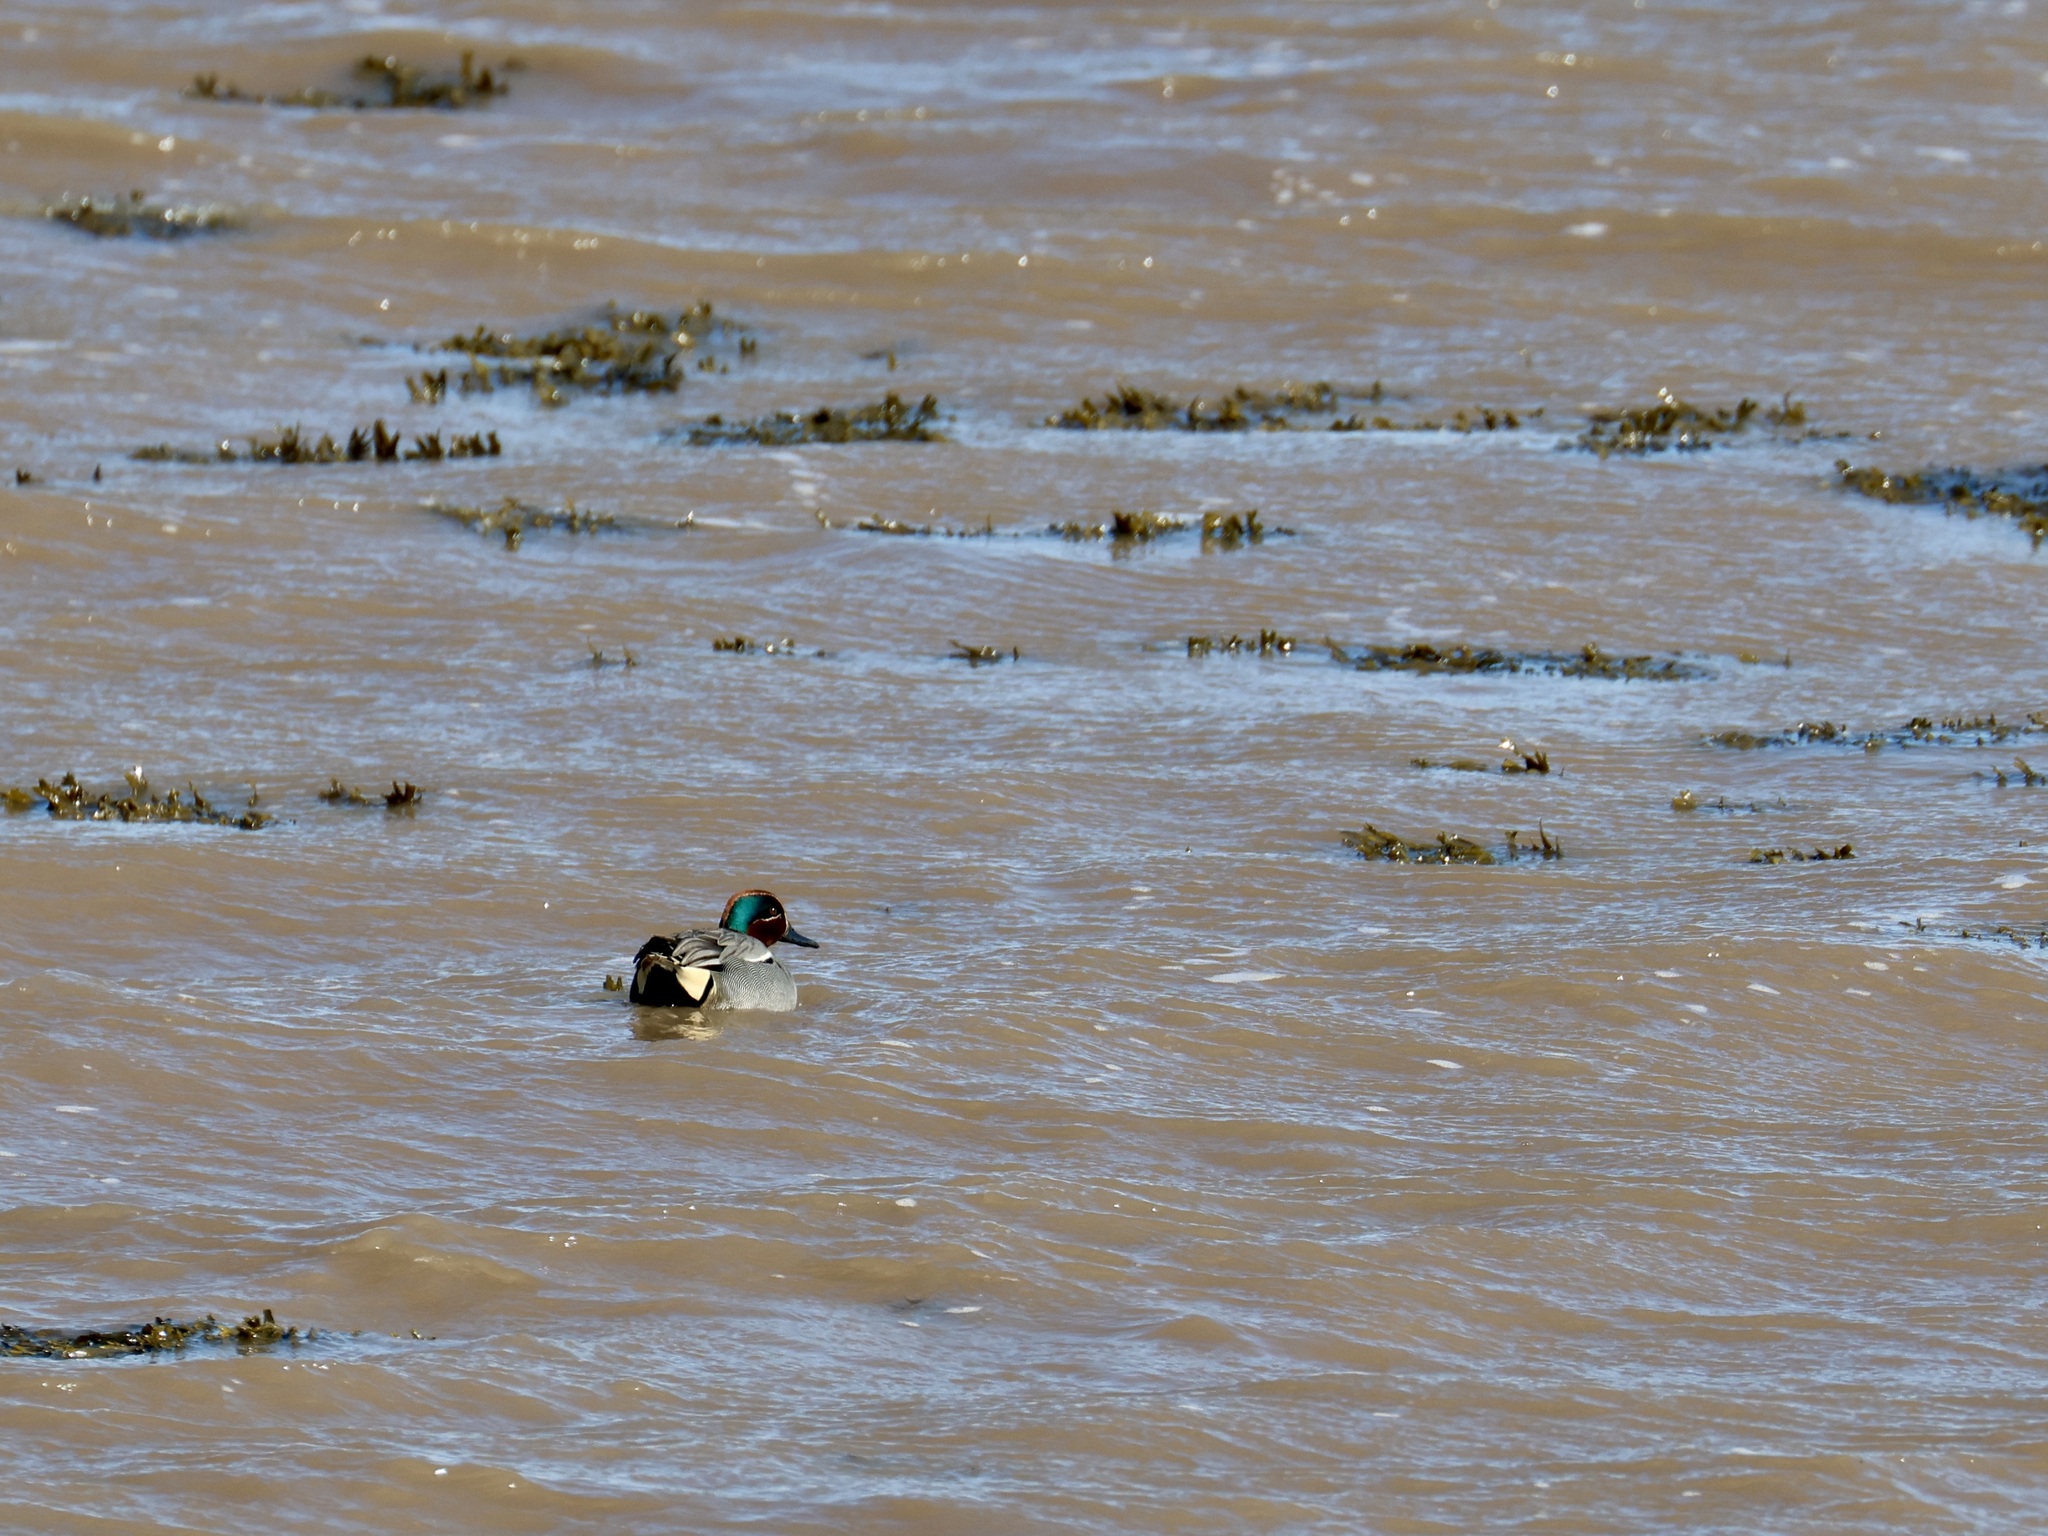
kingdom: Animalia
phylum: Chordata
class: Aves
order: Anseriformes
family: Anatidae
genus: Anas
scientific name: Anas crecca
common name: Eurasian teal
